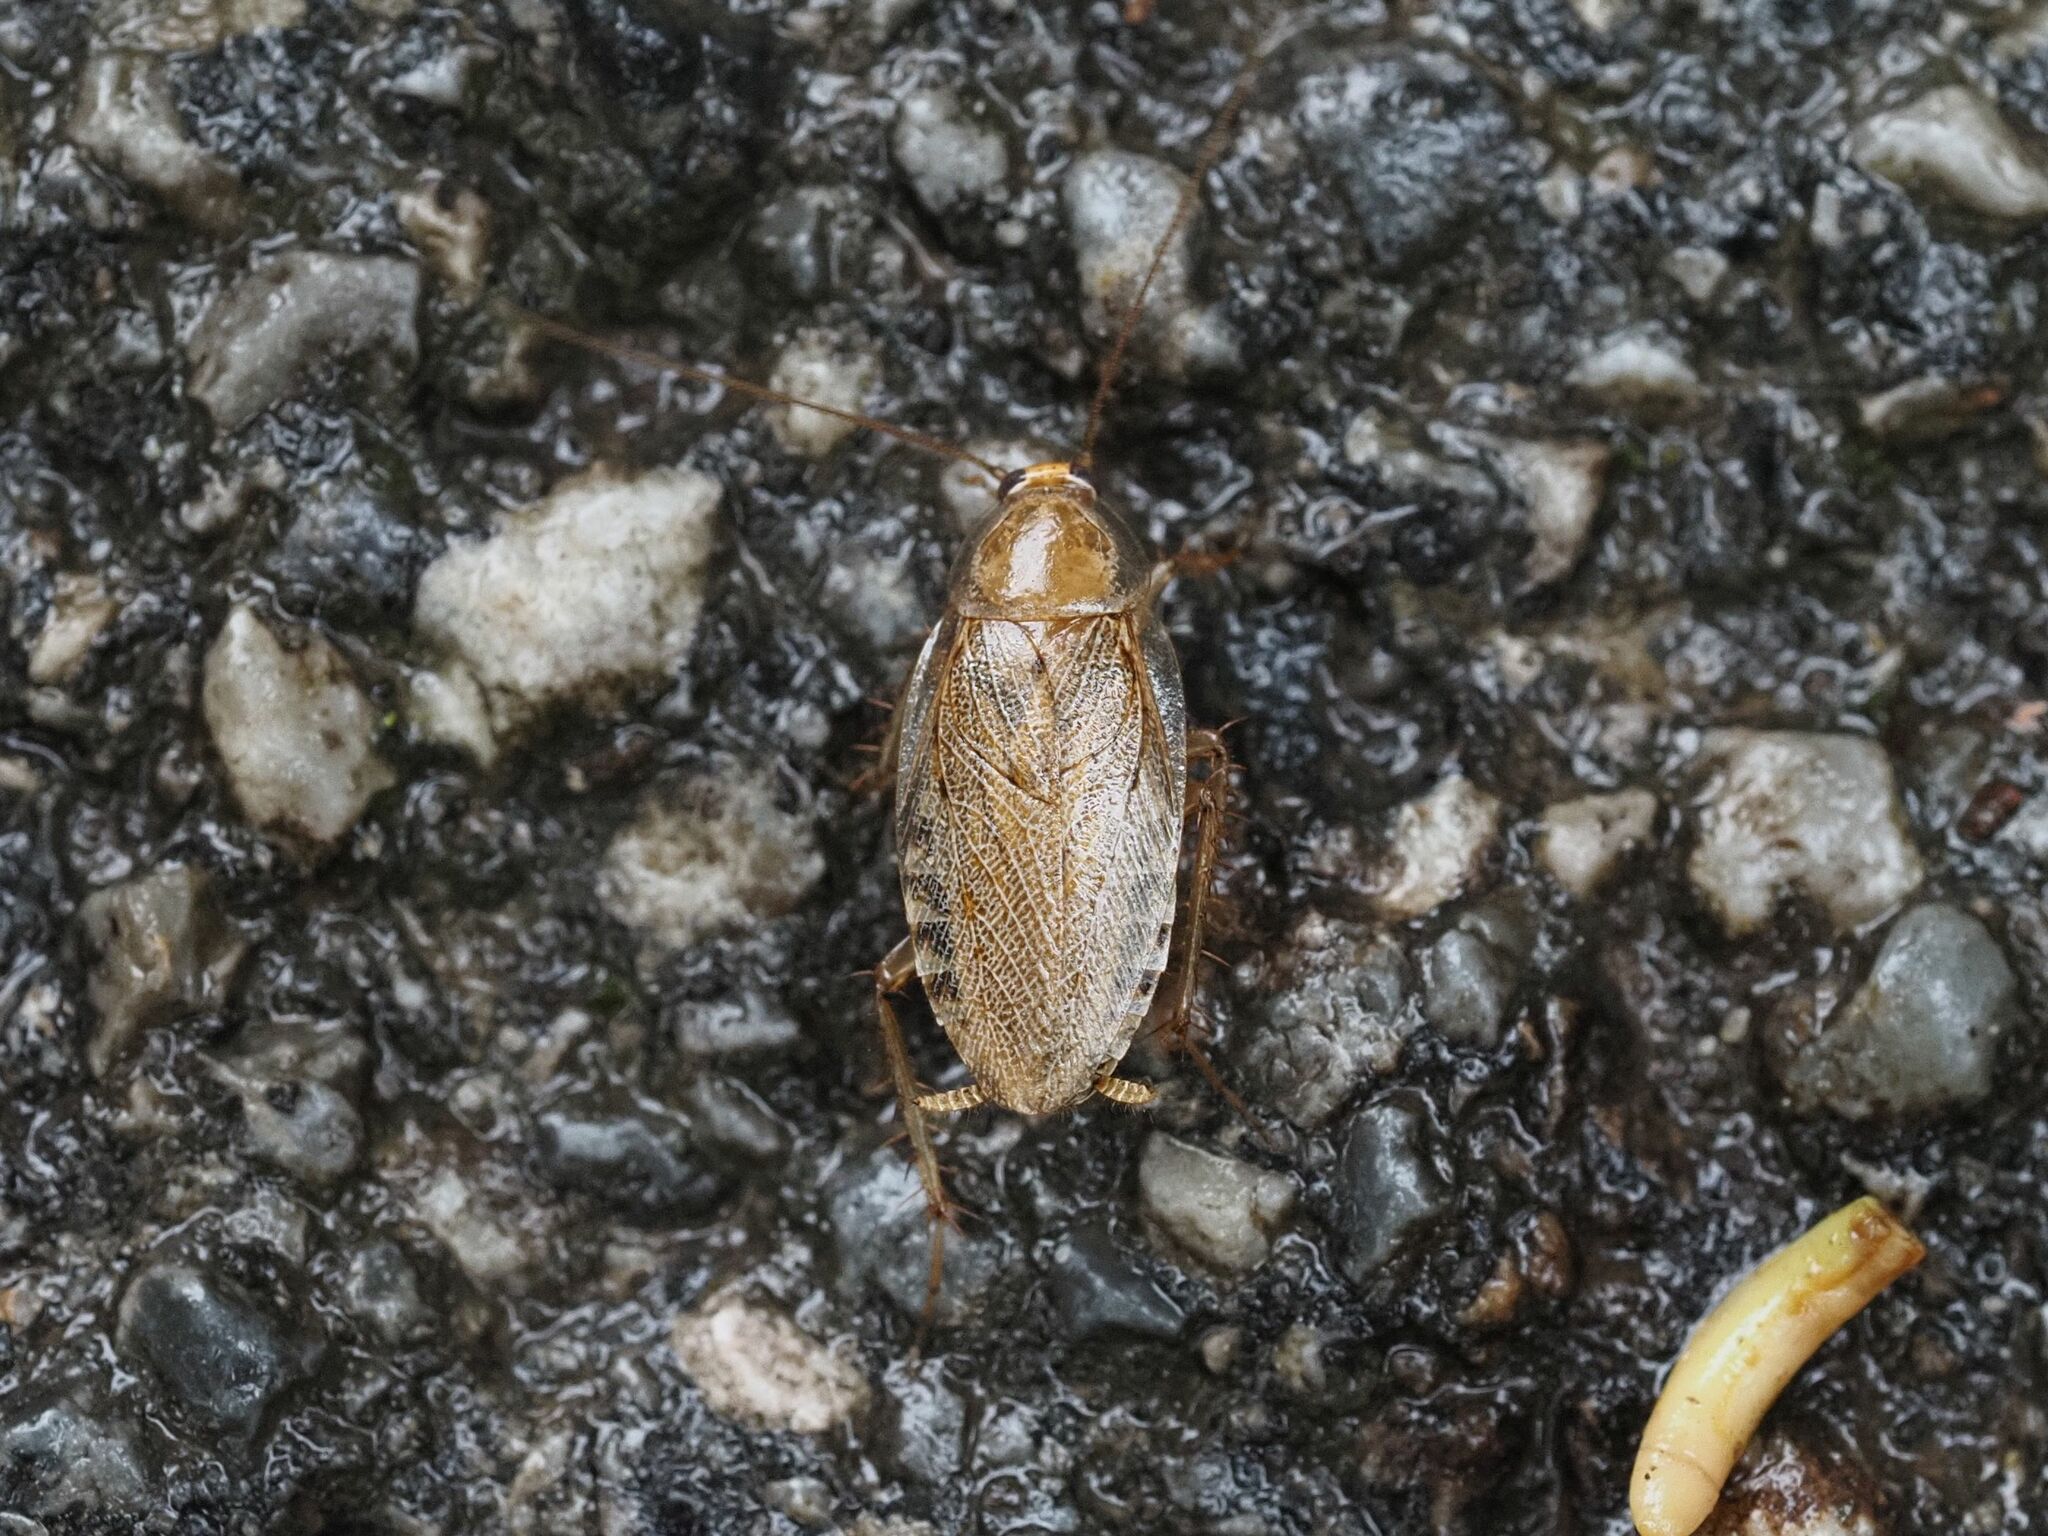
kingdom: Animalia
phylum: Arthropoda
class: Insecta
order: Blattodea
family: Ectobiidae
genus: Ectobius
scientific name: Ectobius vittiventris
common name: Garden cockroach
